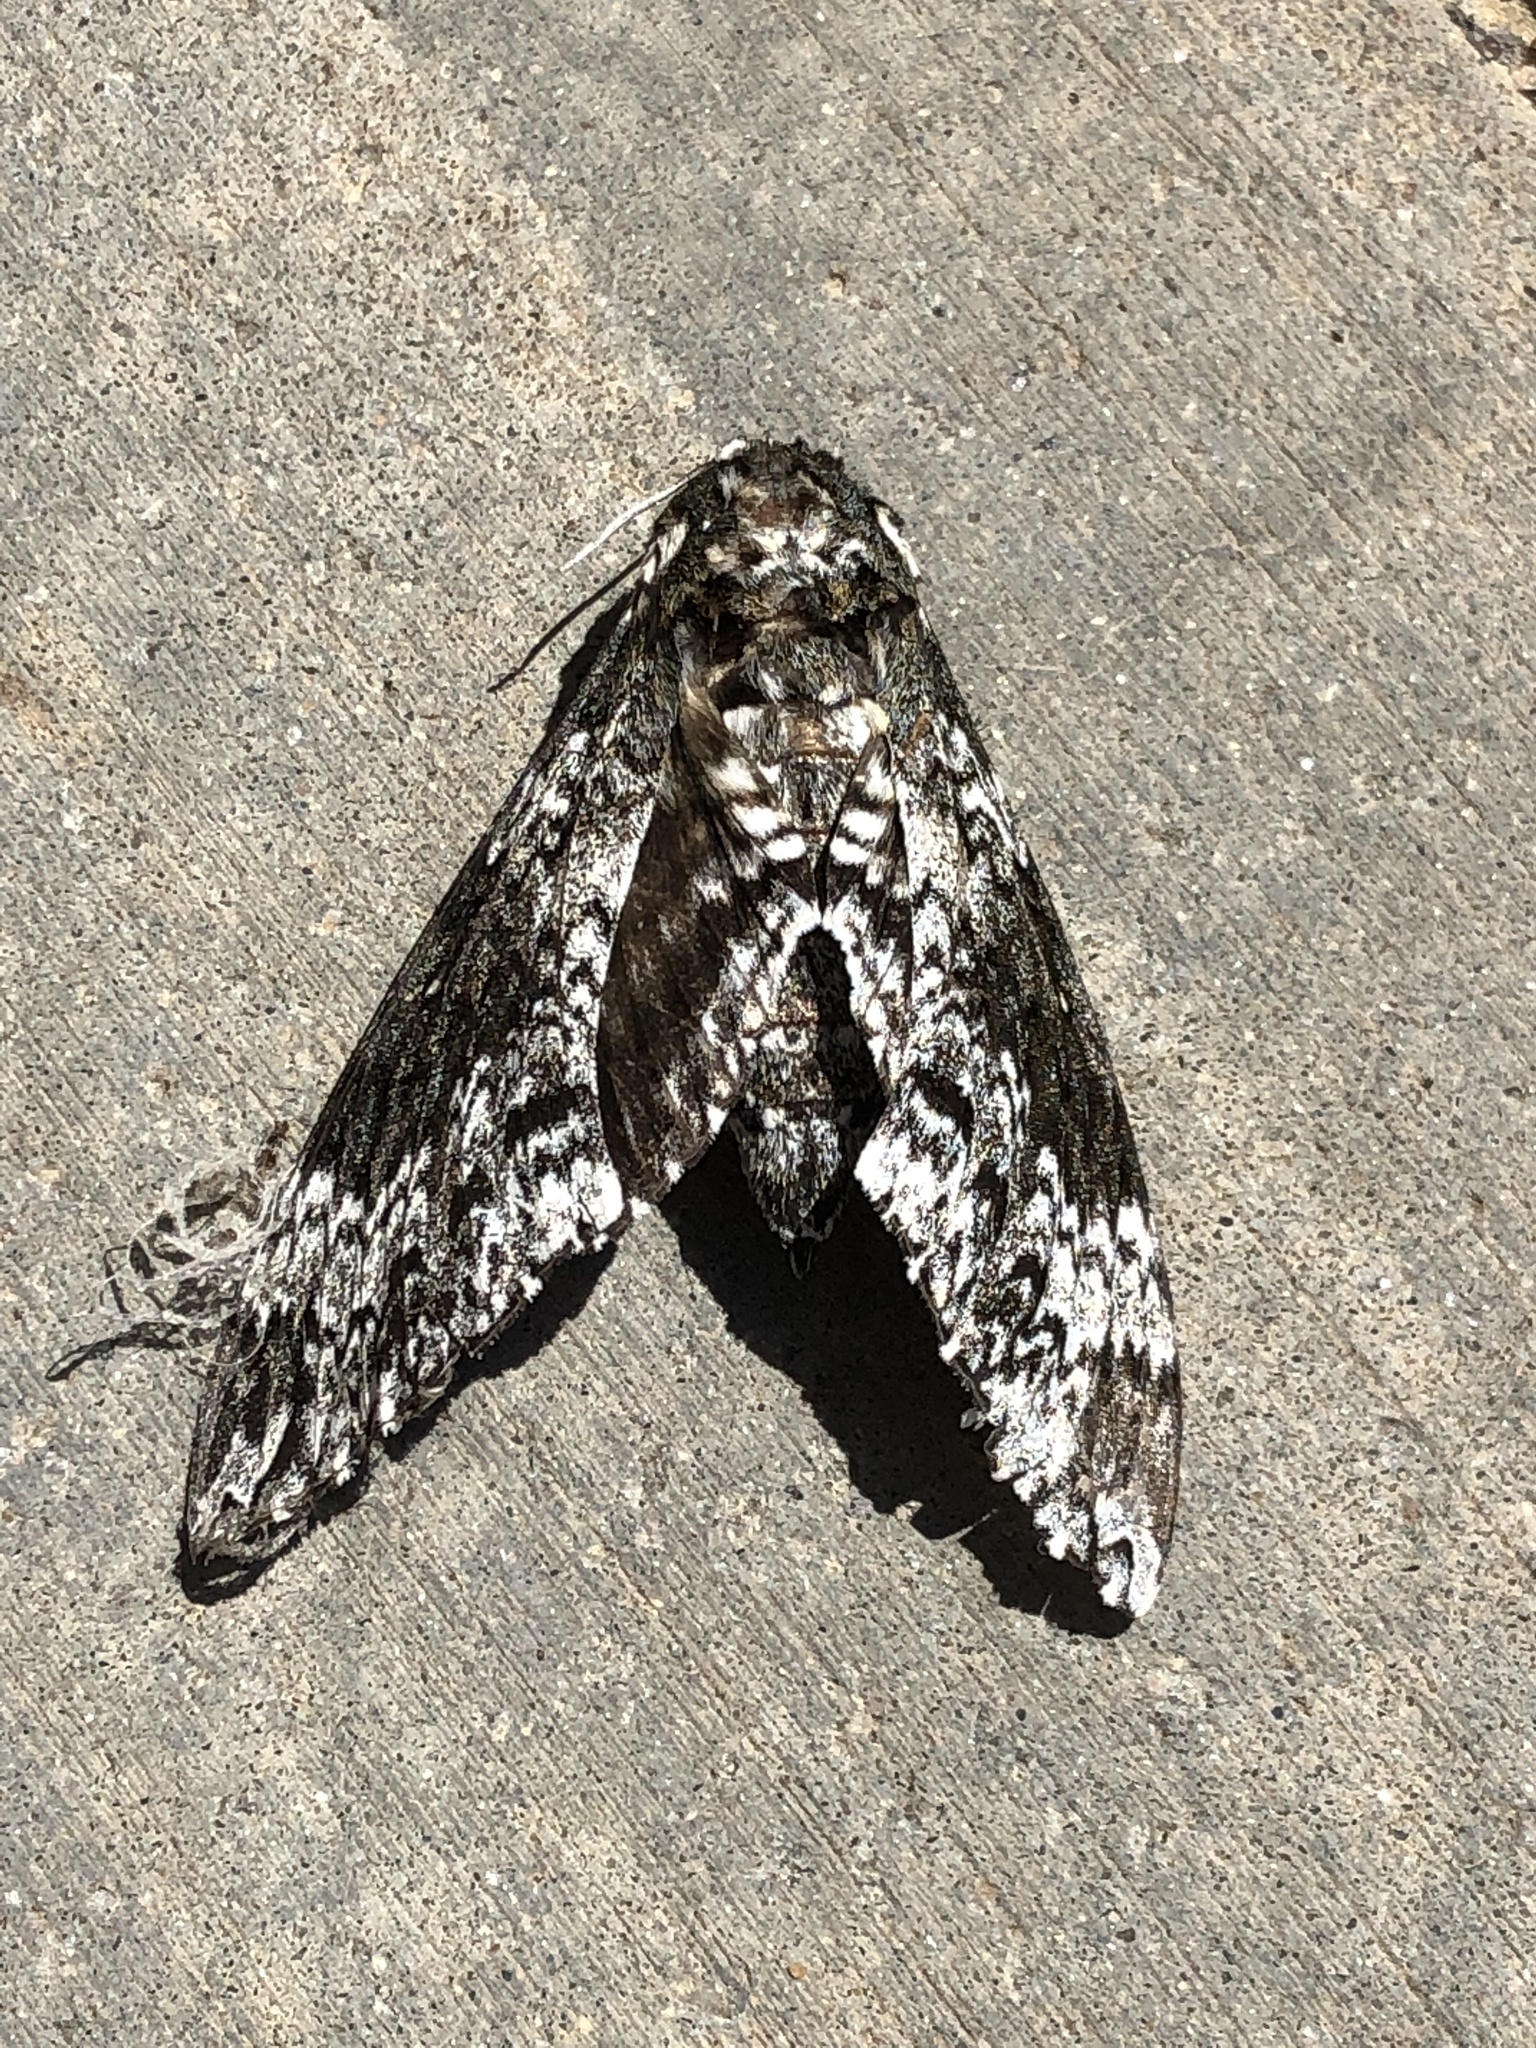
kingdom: Animalia
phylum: Arthropoda
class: Insecta
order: Lepidoptera
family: Sphingidae
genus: Manduca
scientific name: Manduca rustica
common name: Rustic sphinx
